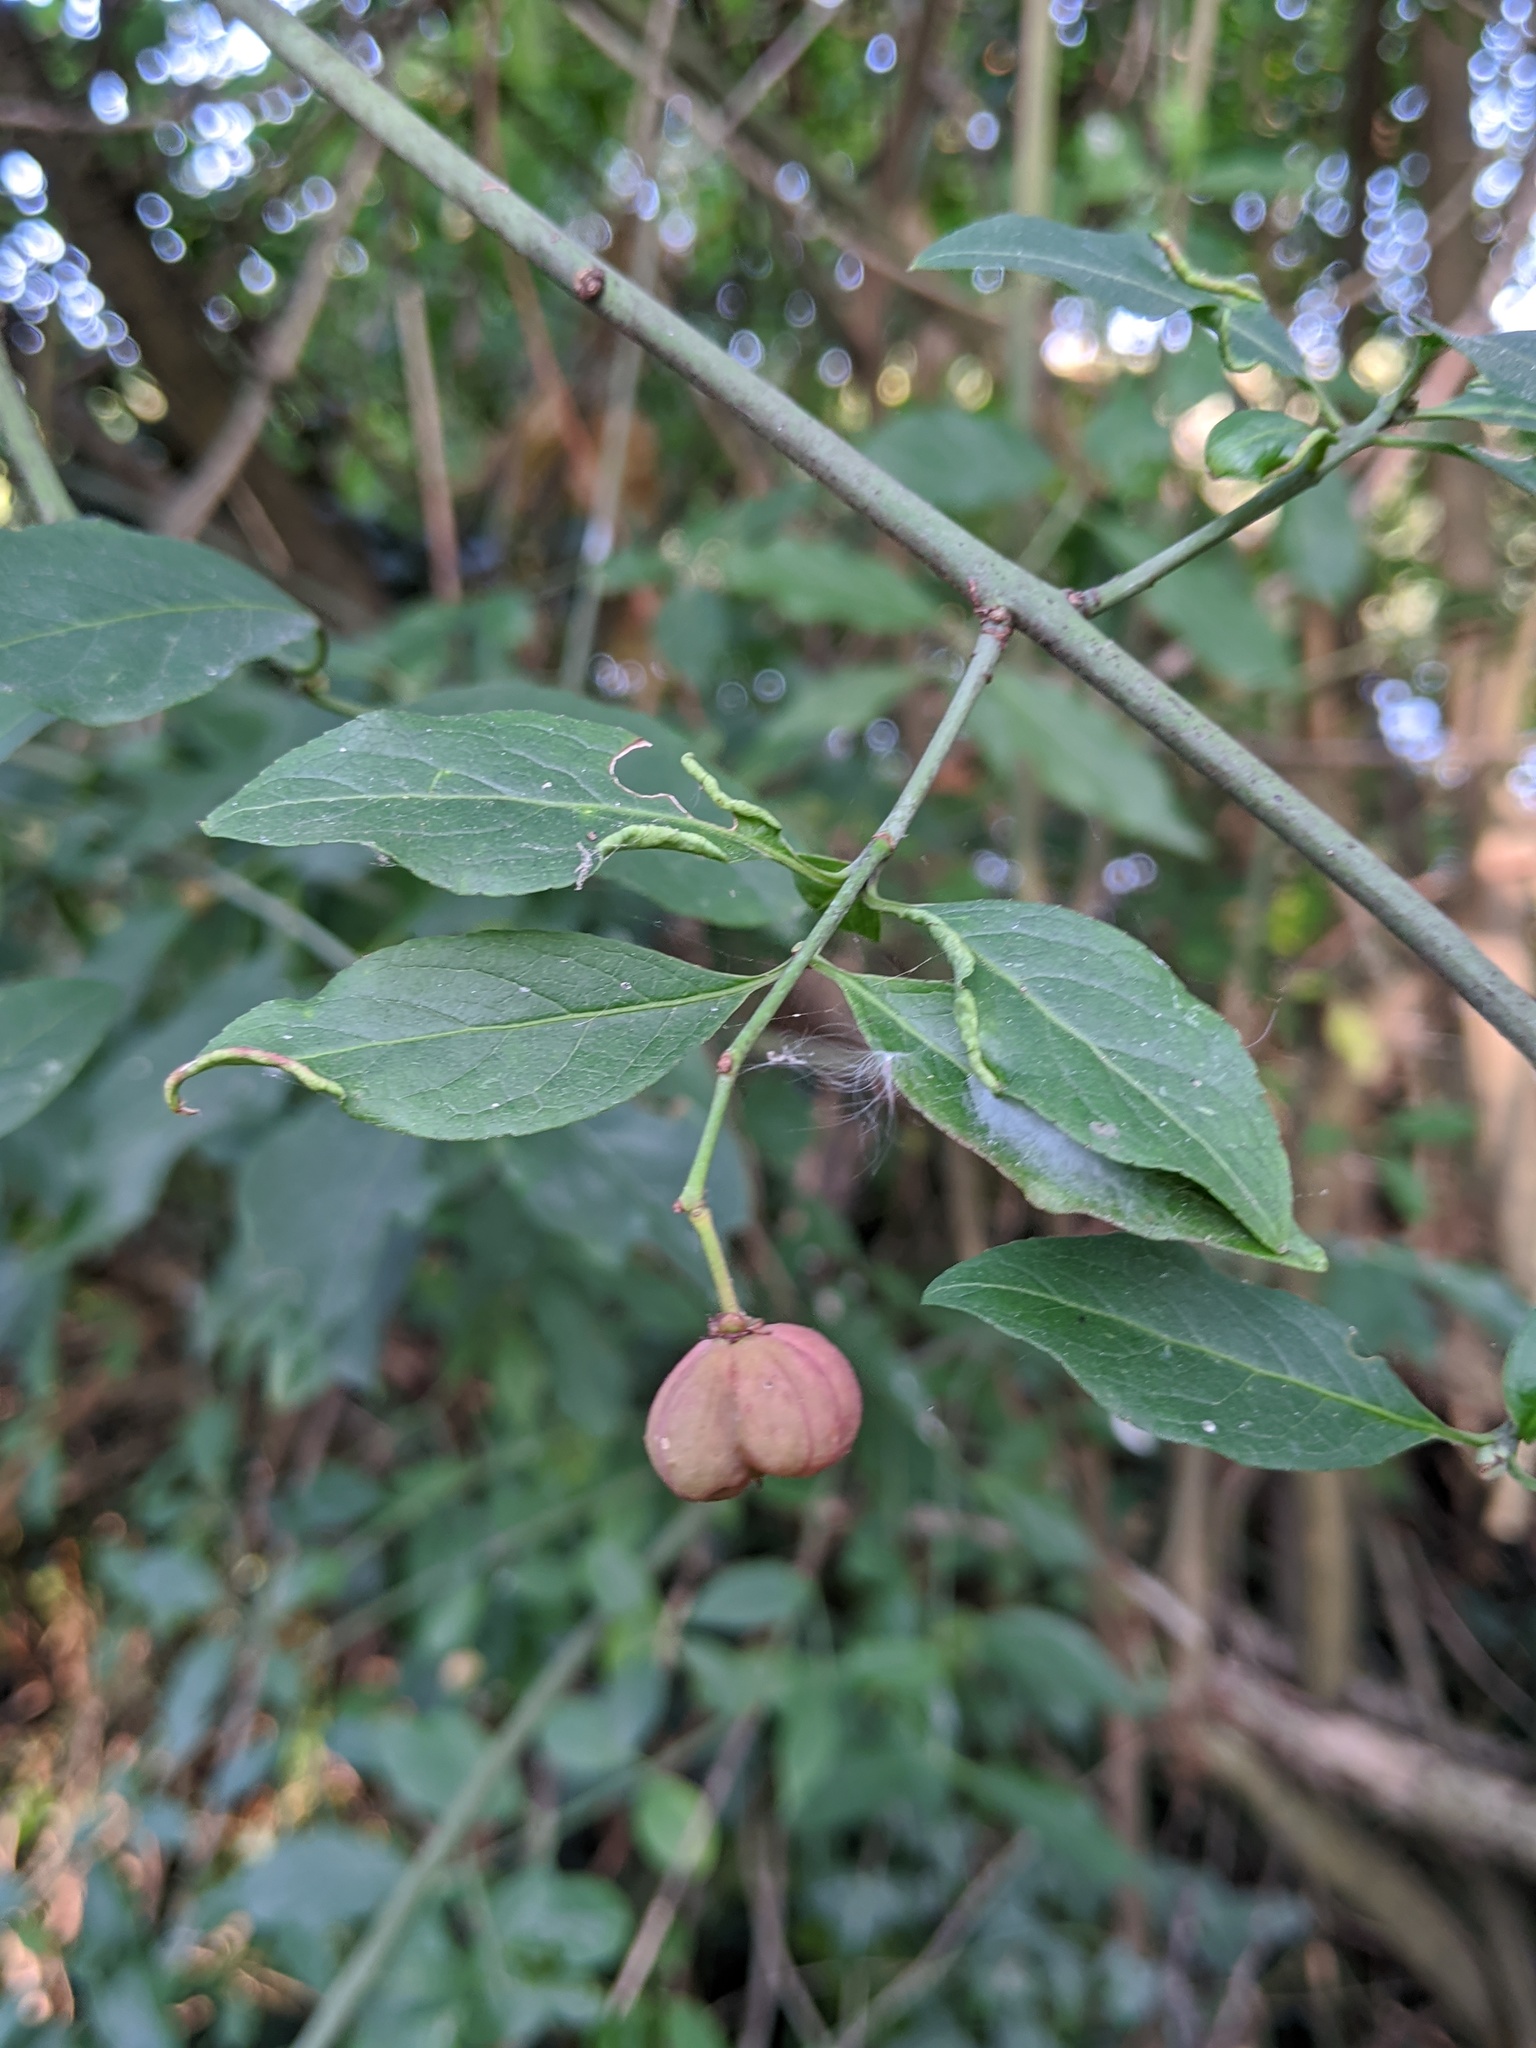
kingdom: Plantae
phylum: Tracheophyta
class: Magnoliopsida
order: Celastrales
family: Celastraceae
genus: Euonymus
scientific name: Euonymus europaeus
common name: Spindle
